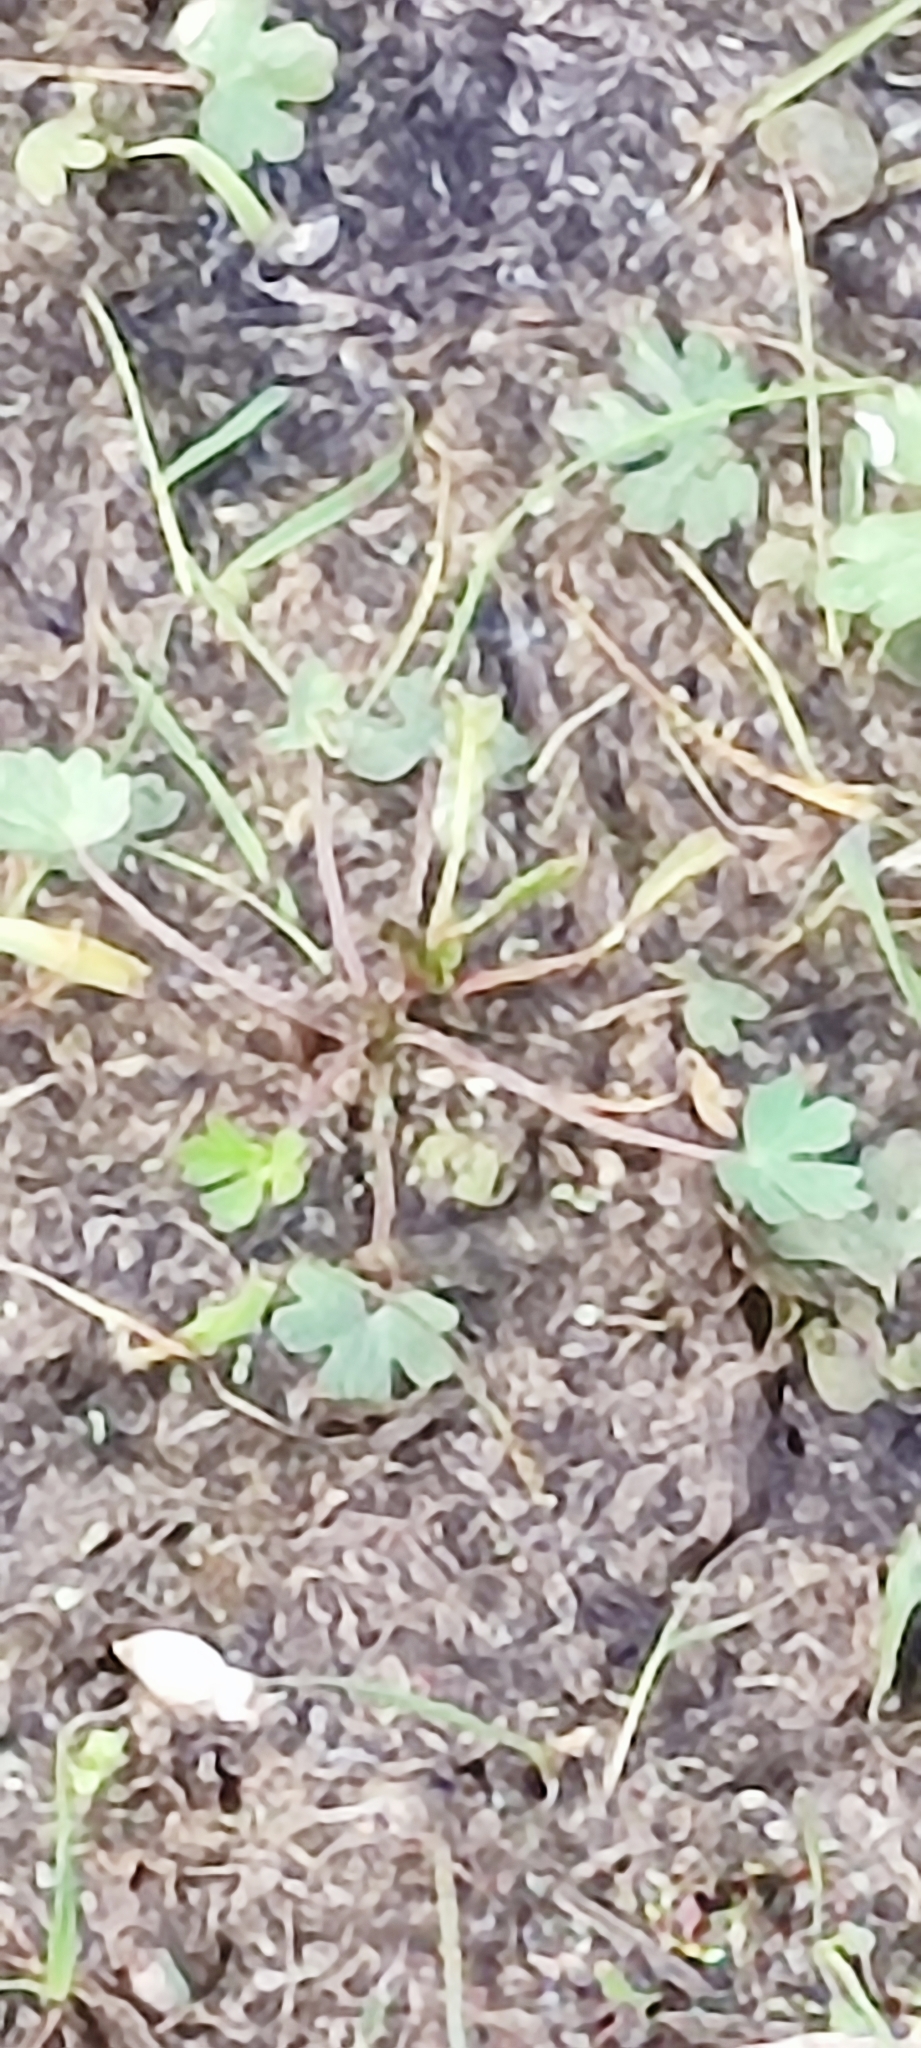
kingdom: Plantae
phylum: Tracheophyta
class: Magnoliopsida
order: Ranunculales
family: Ranunculaceae
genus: Ranunculus
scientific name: Ranunculus sceleratus
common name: Celery-leaved buttercup
